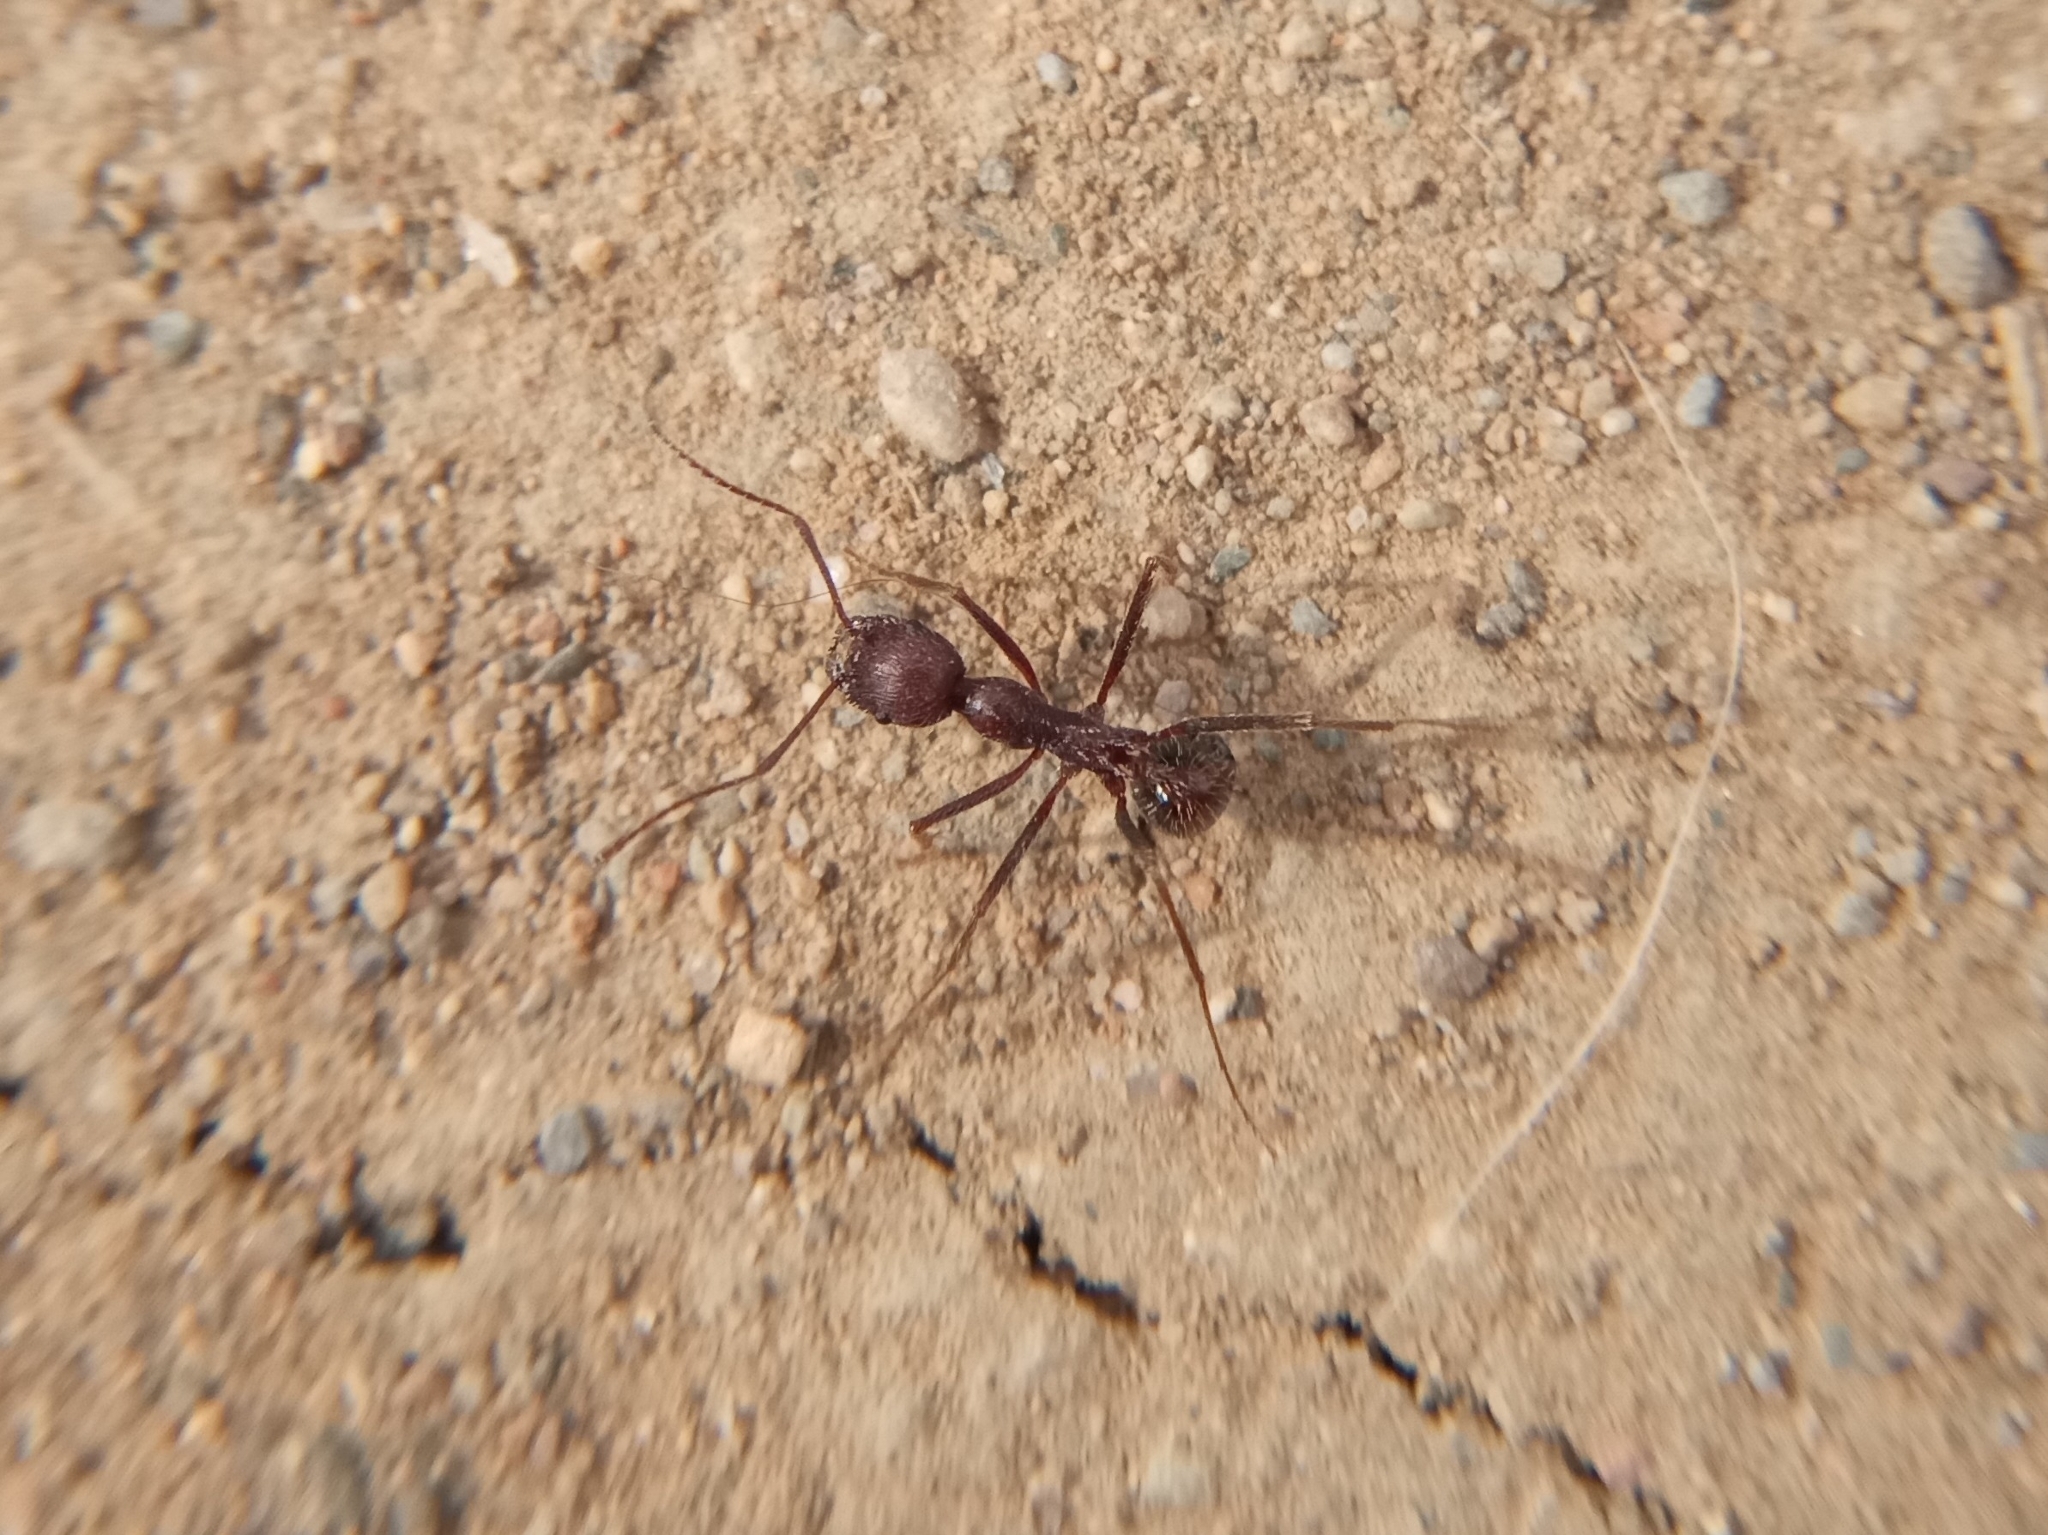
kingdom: Animalia
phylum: Arthropoda
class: Insecta
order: Hymenoptera
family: Formicidae
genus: Novomessor
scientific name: Novomessor albisetosa
